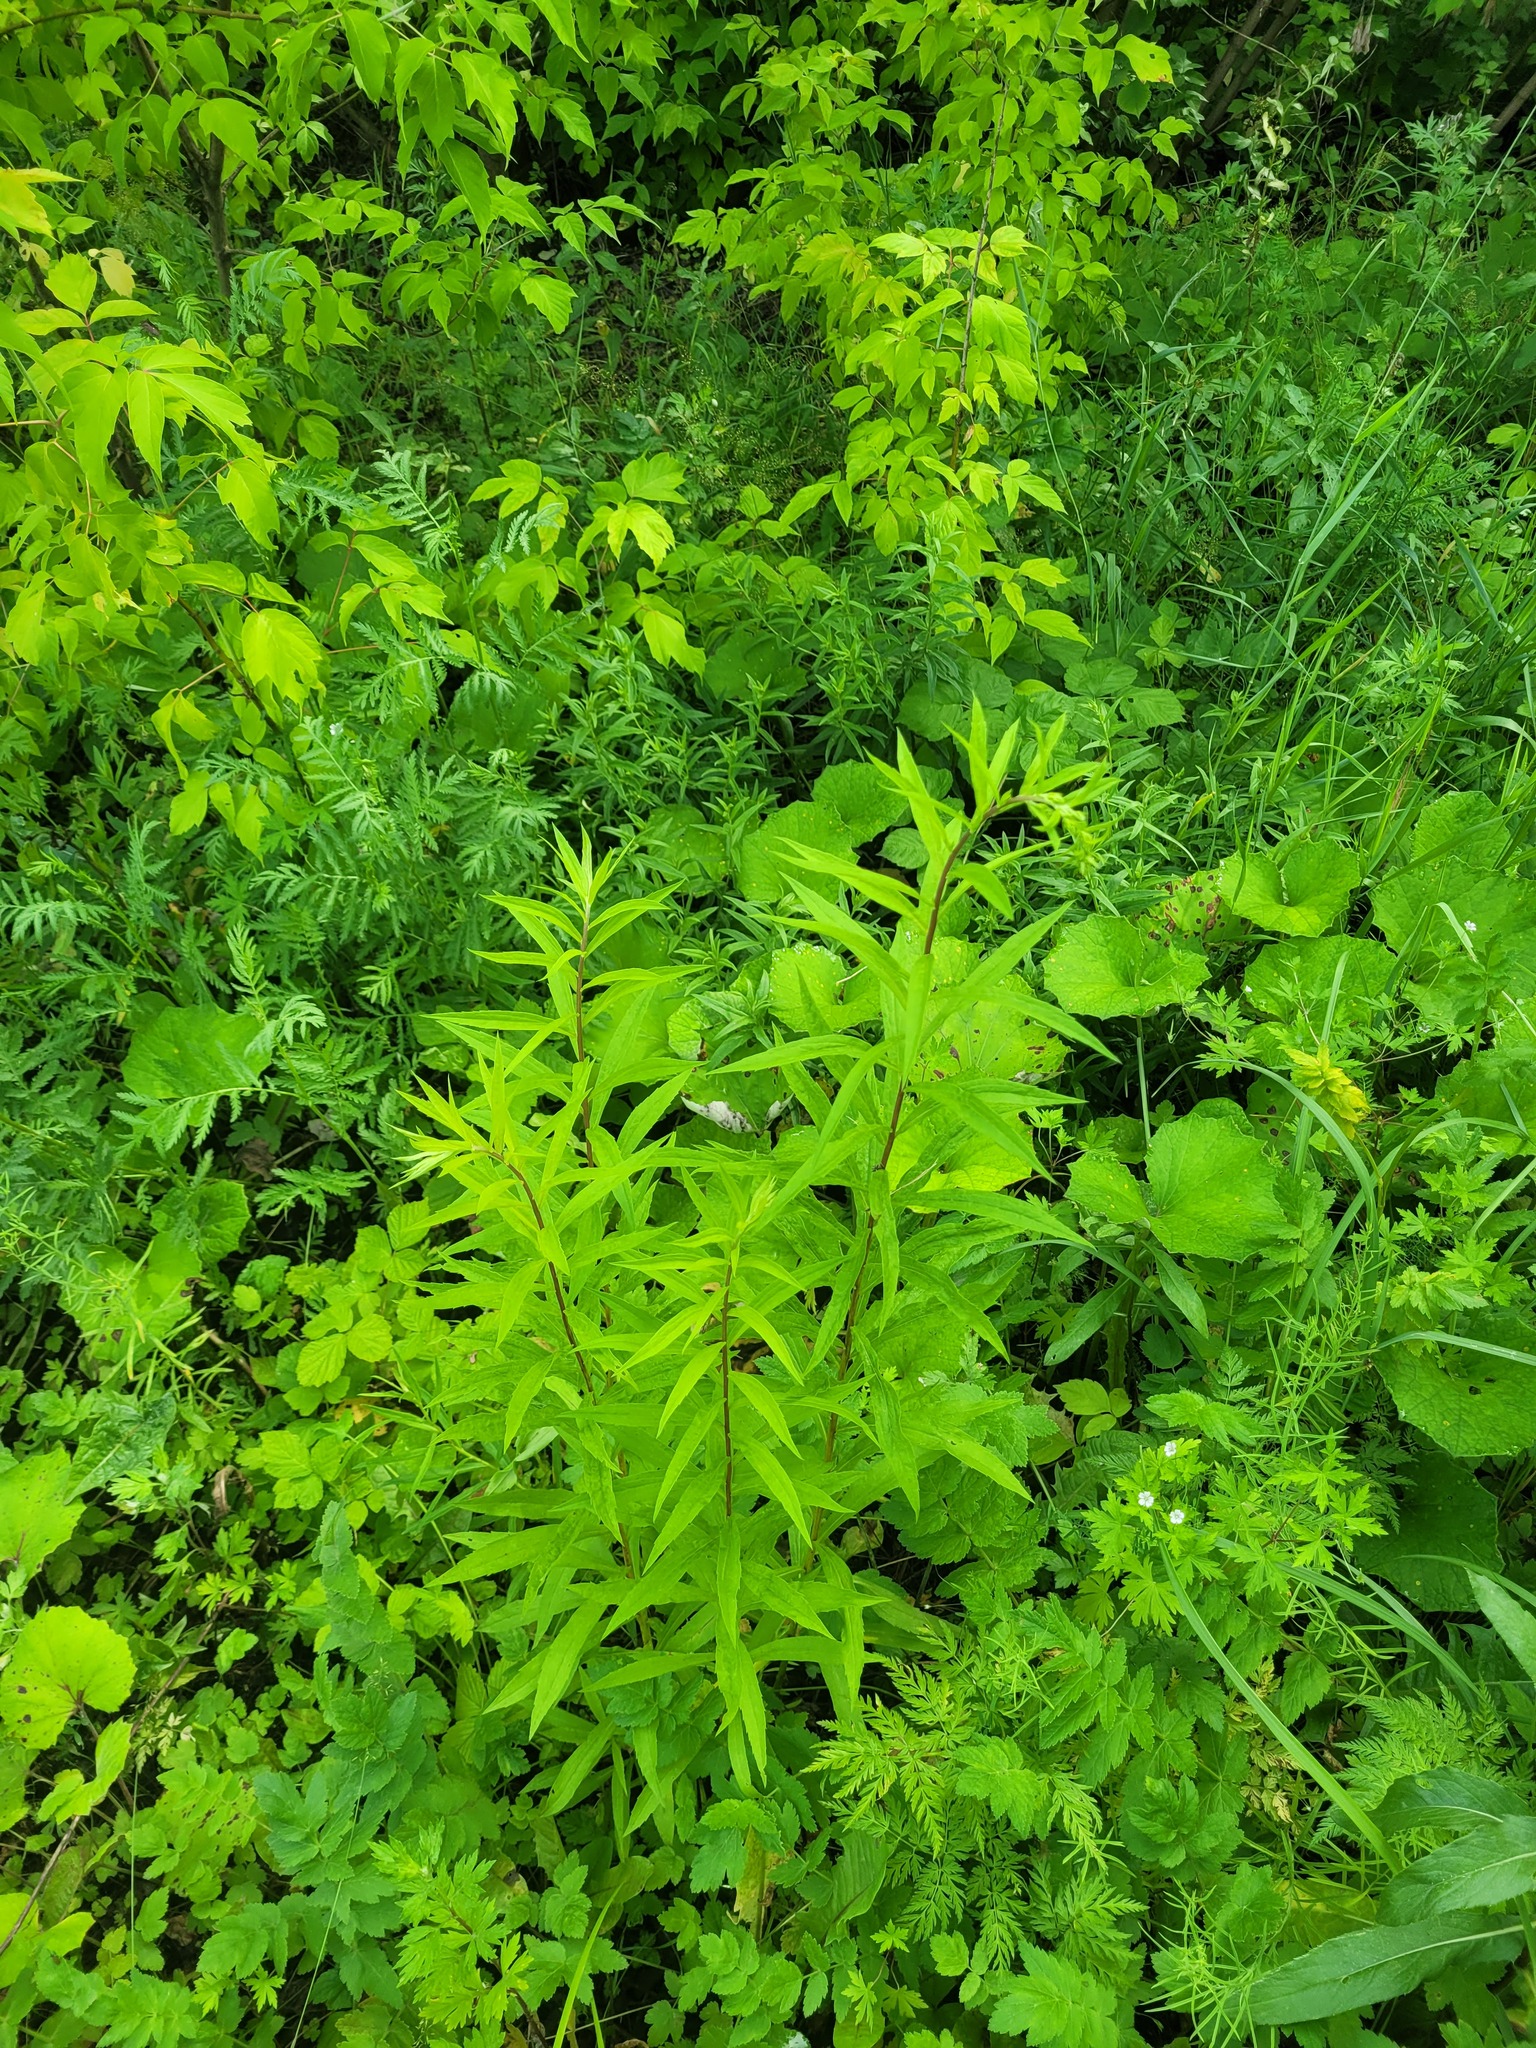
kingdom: Plantae
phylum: Tracheophyta
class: Magnoliopsida
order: Asterales
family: Asteraceae
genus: Solidago
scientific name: Solidago canadensis
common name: Canada goldenrod
